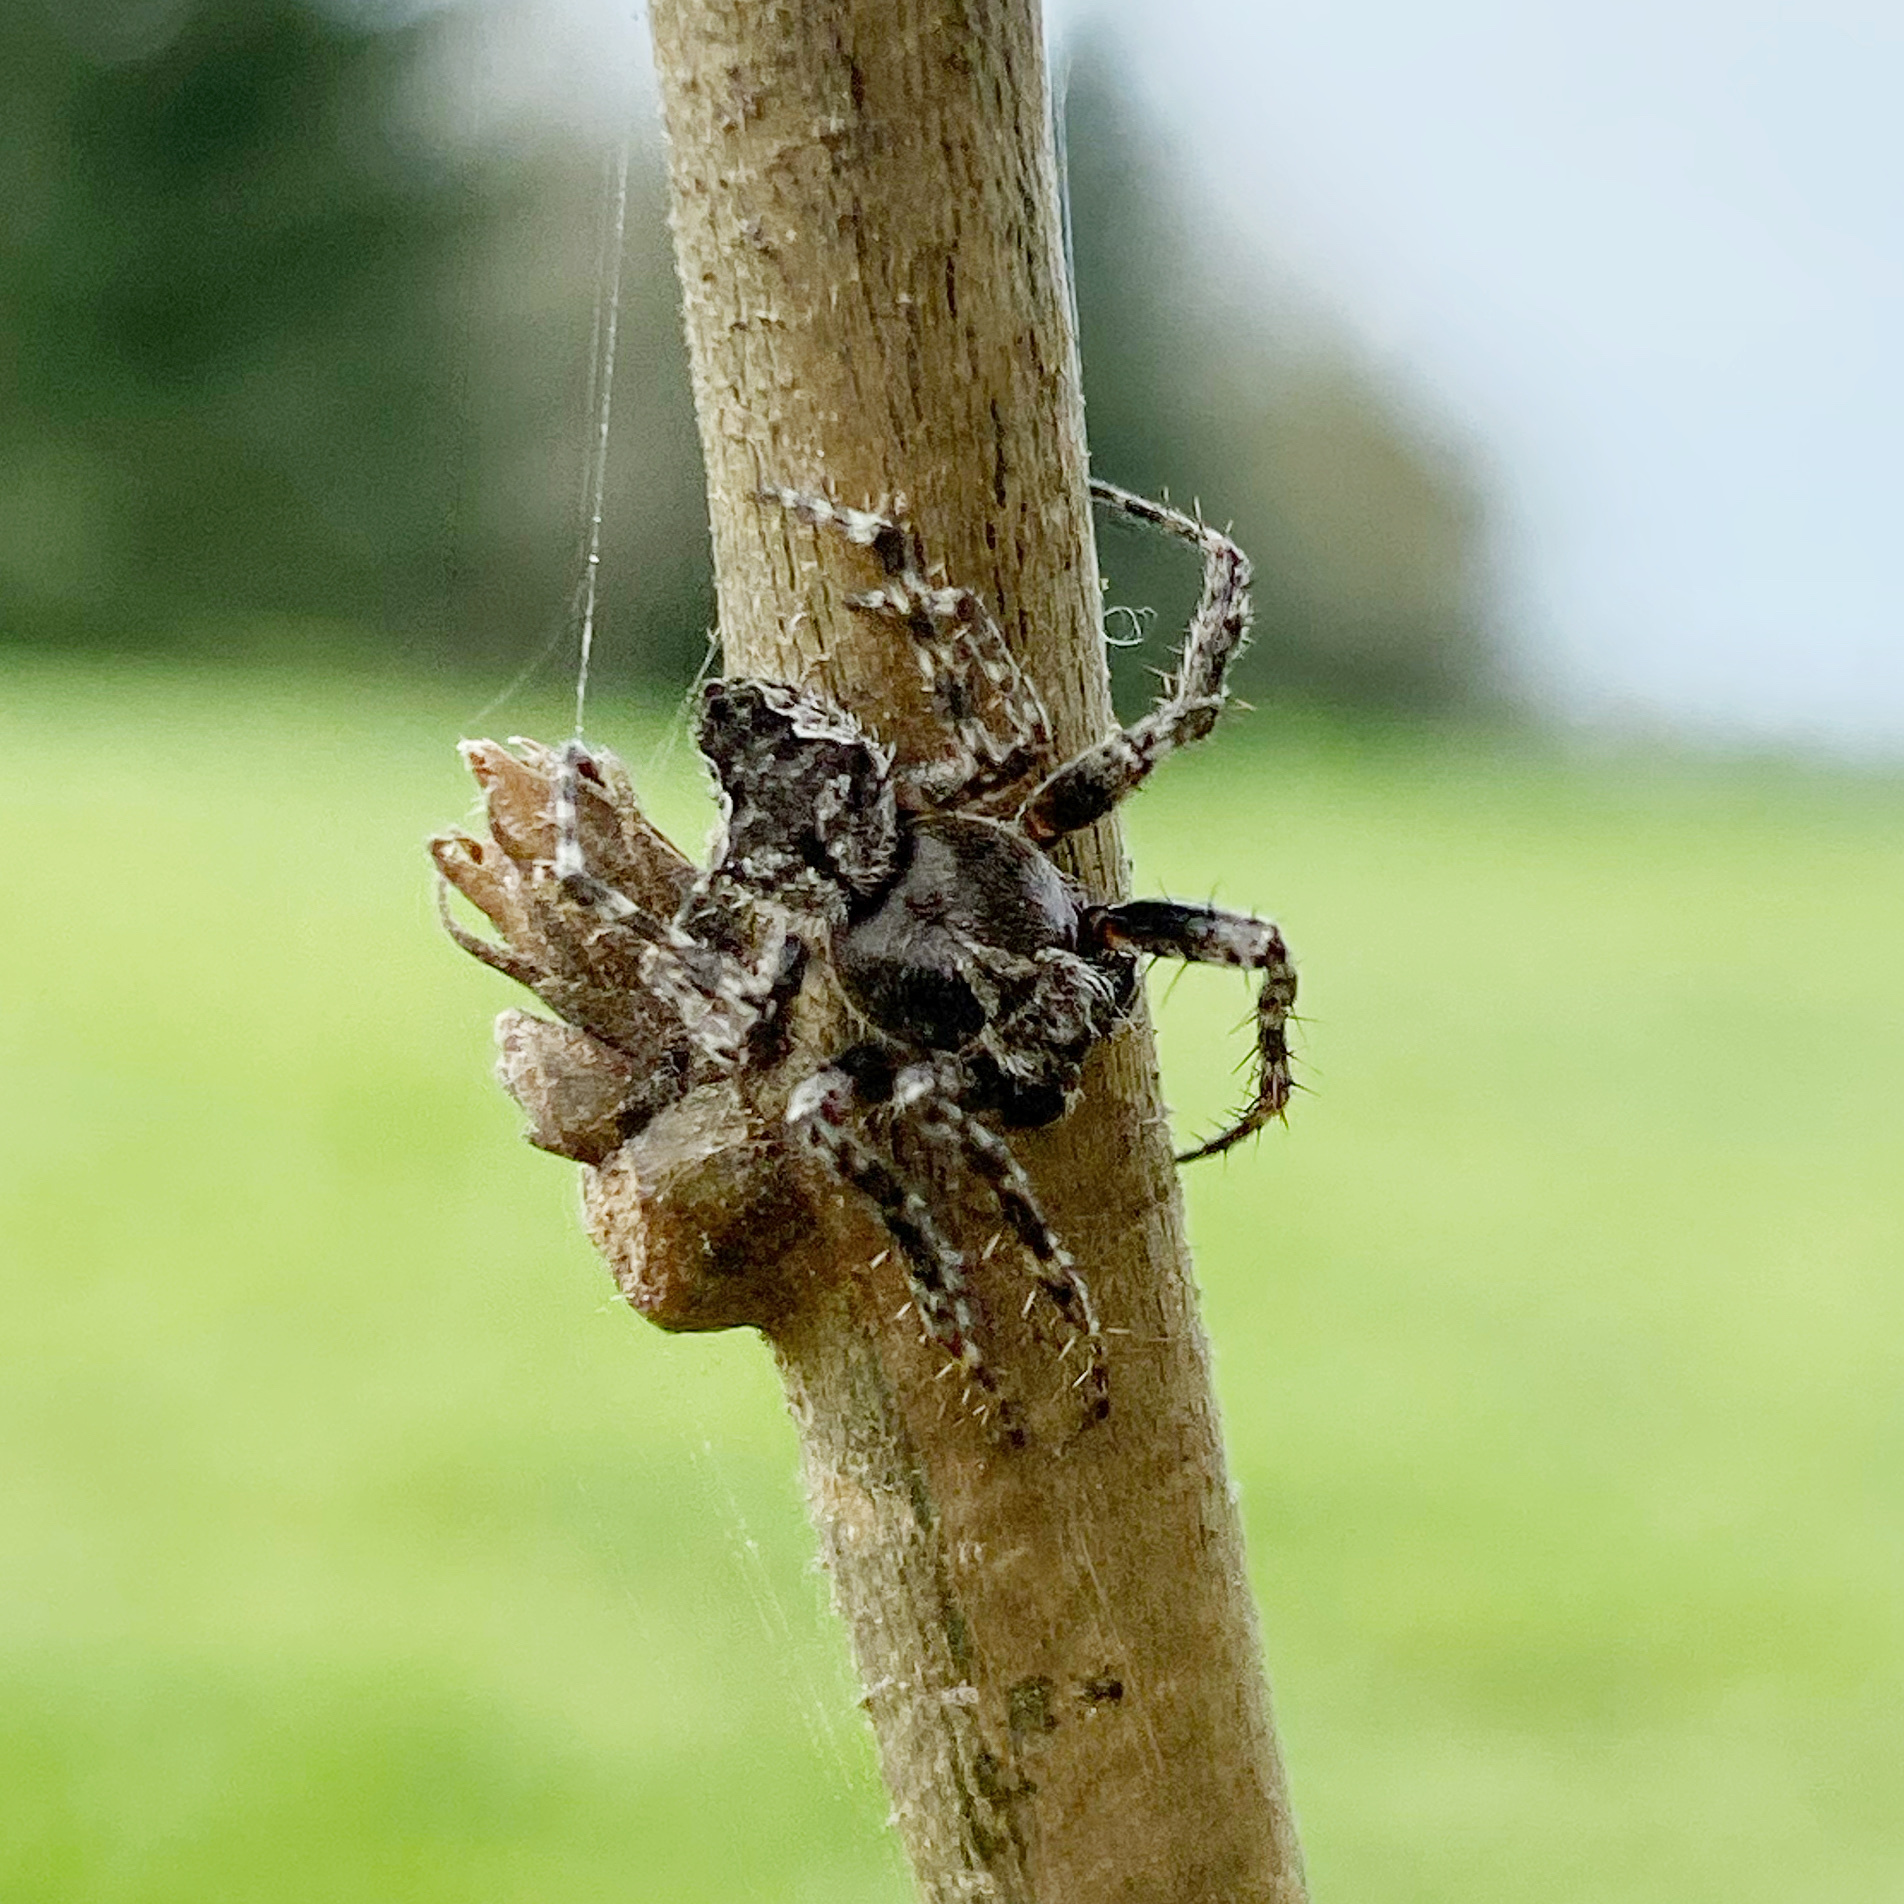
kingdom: Animalia
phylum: Arthropoda
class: Arachnida
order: Araneae
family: Araneidae
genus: Eriophora
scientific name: Eriophora pustulosa
